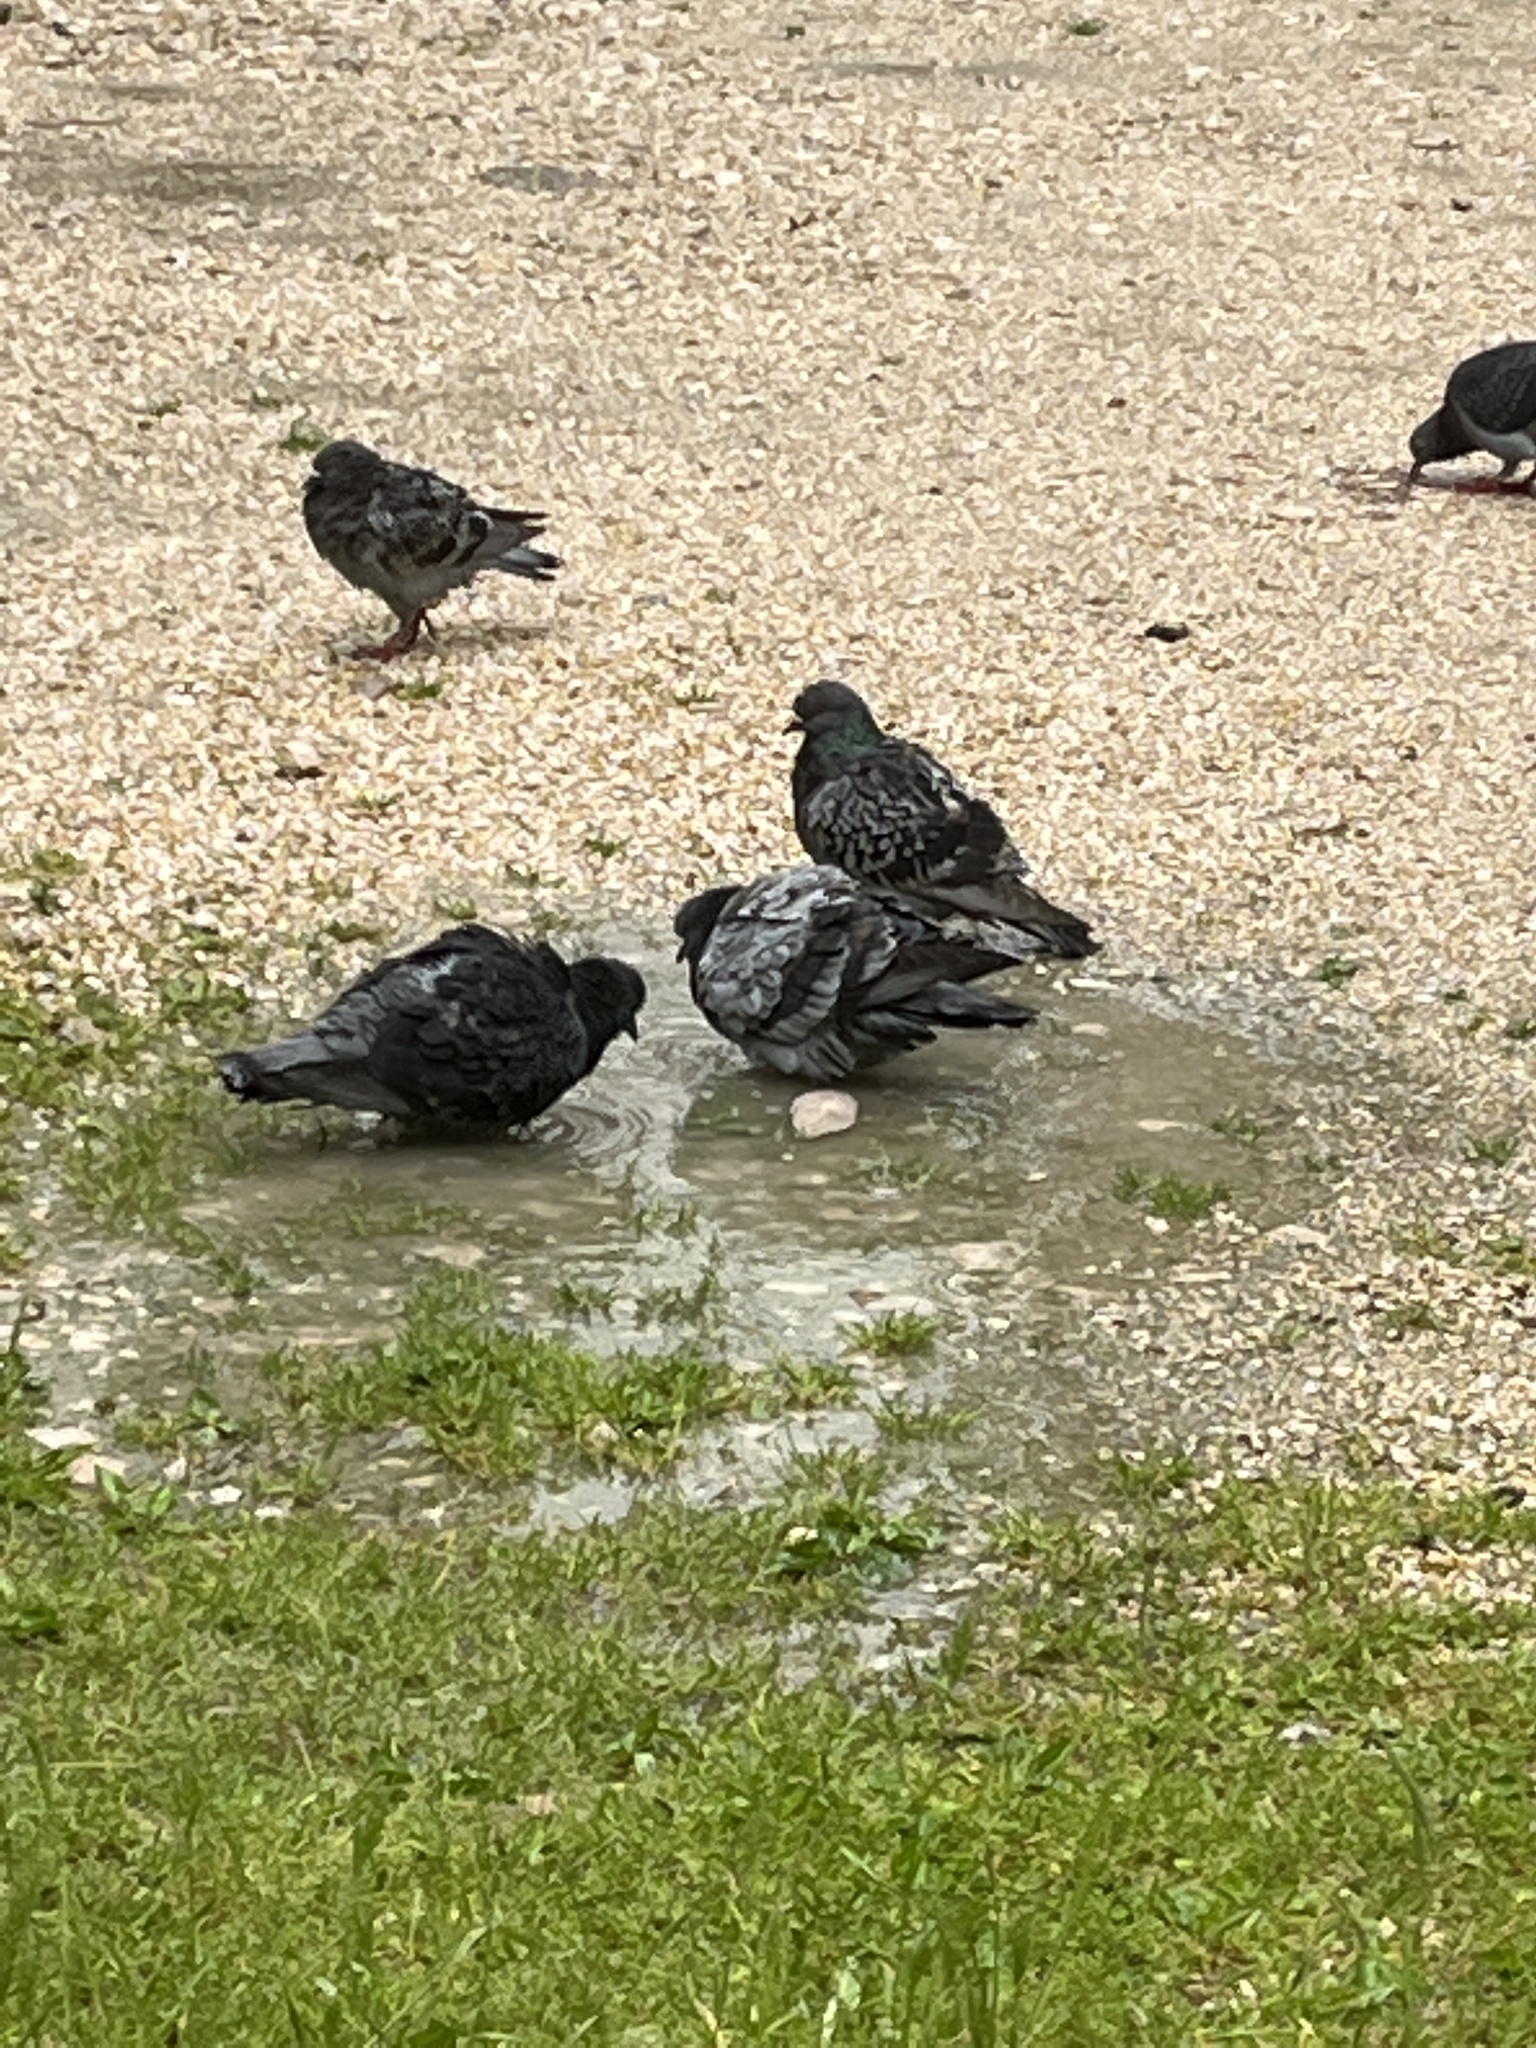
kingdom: Animalia
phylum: Chordata
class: Aves
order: Columbiformes
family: Columbidae
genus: Columba
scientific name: Columba livia
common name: Rock pigeon
